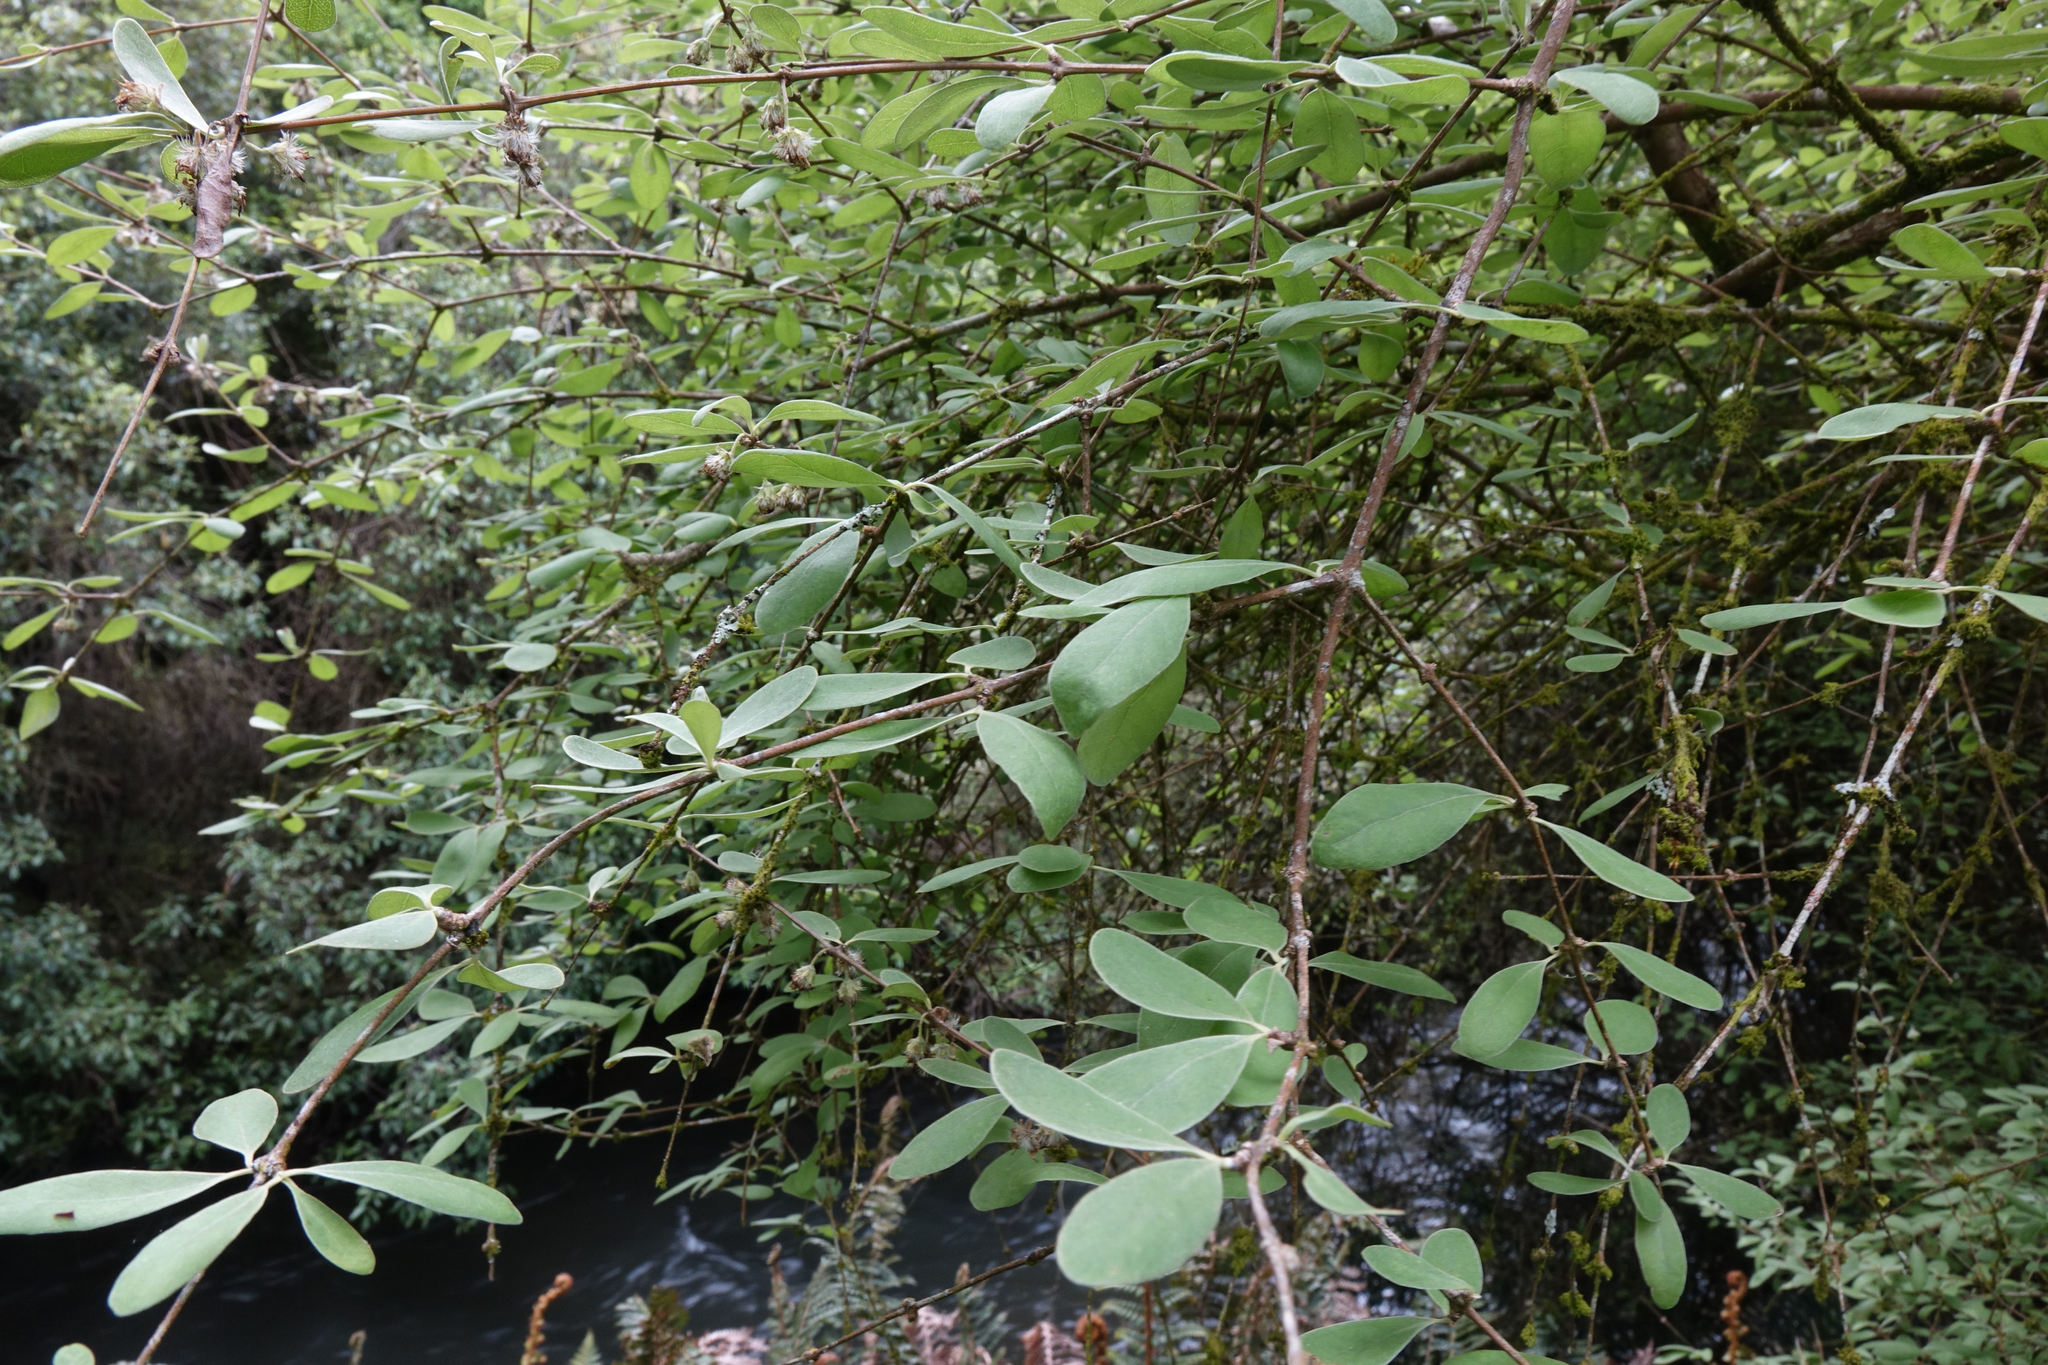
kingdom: Plantae
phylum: Tracheophyta
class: Magnoliopsida
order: Asterales
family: Asteraceae
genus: Olearia
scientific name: Olearia hectorii
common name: Deciduous tree daisy
